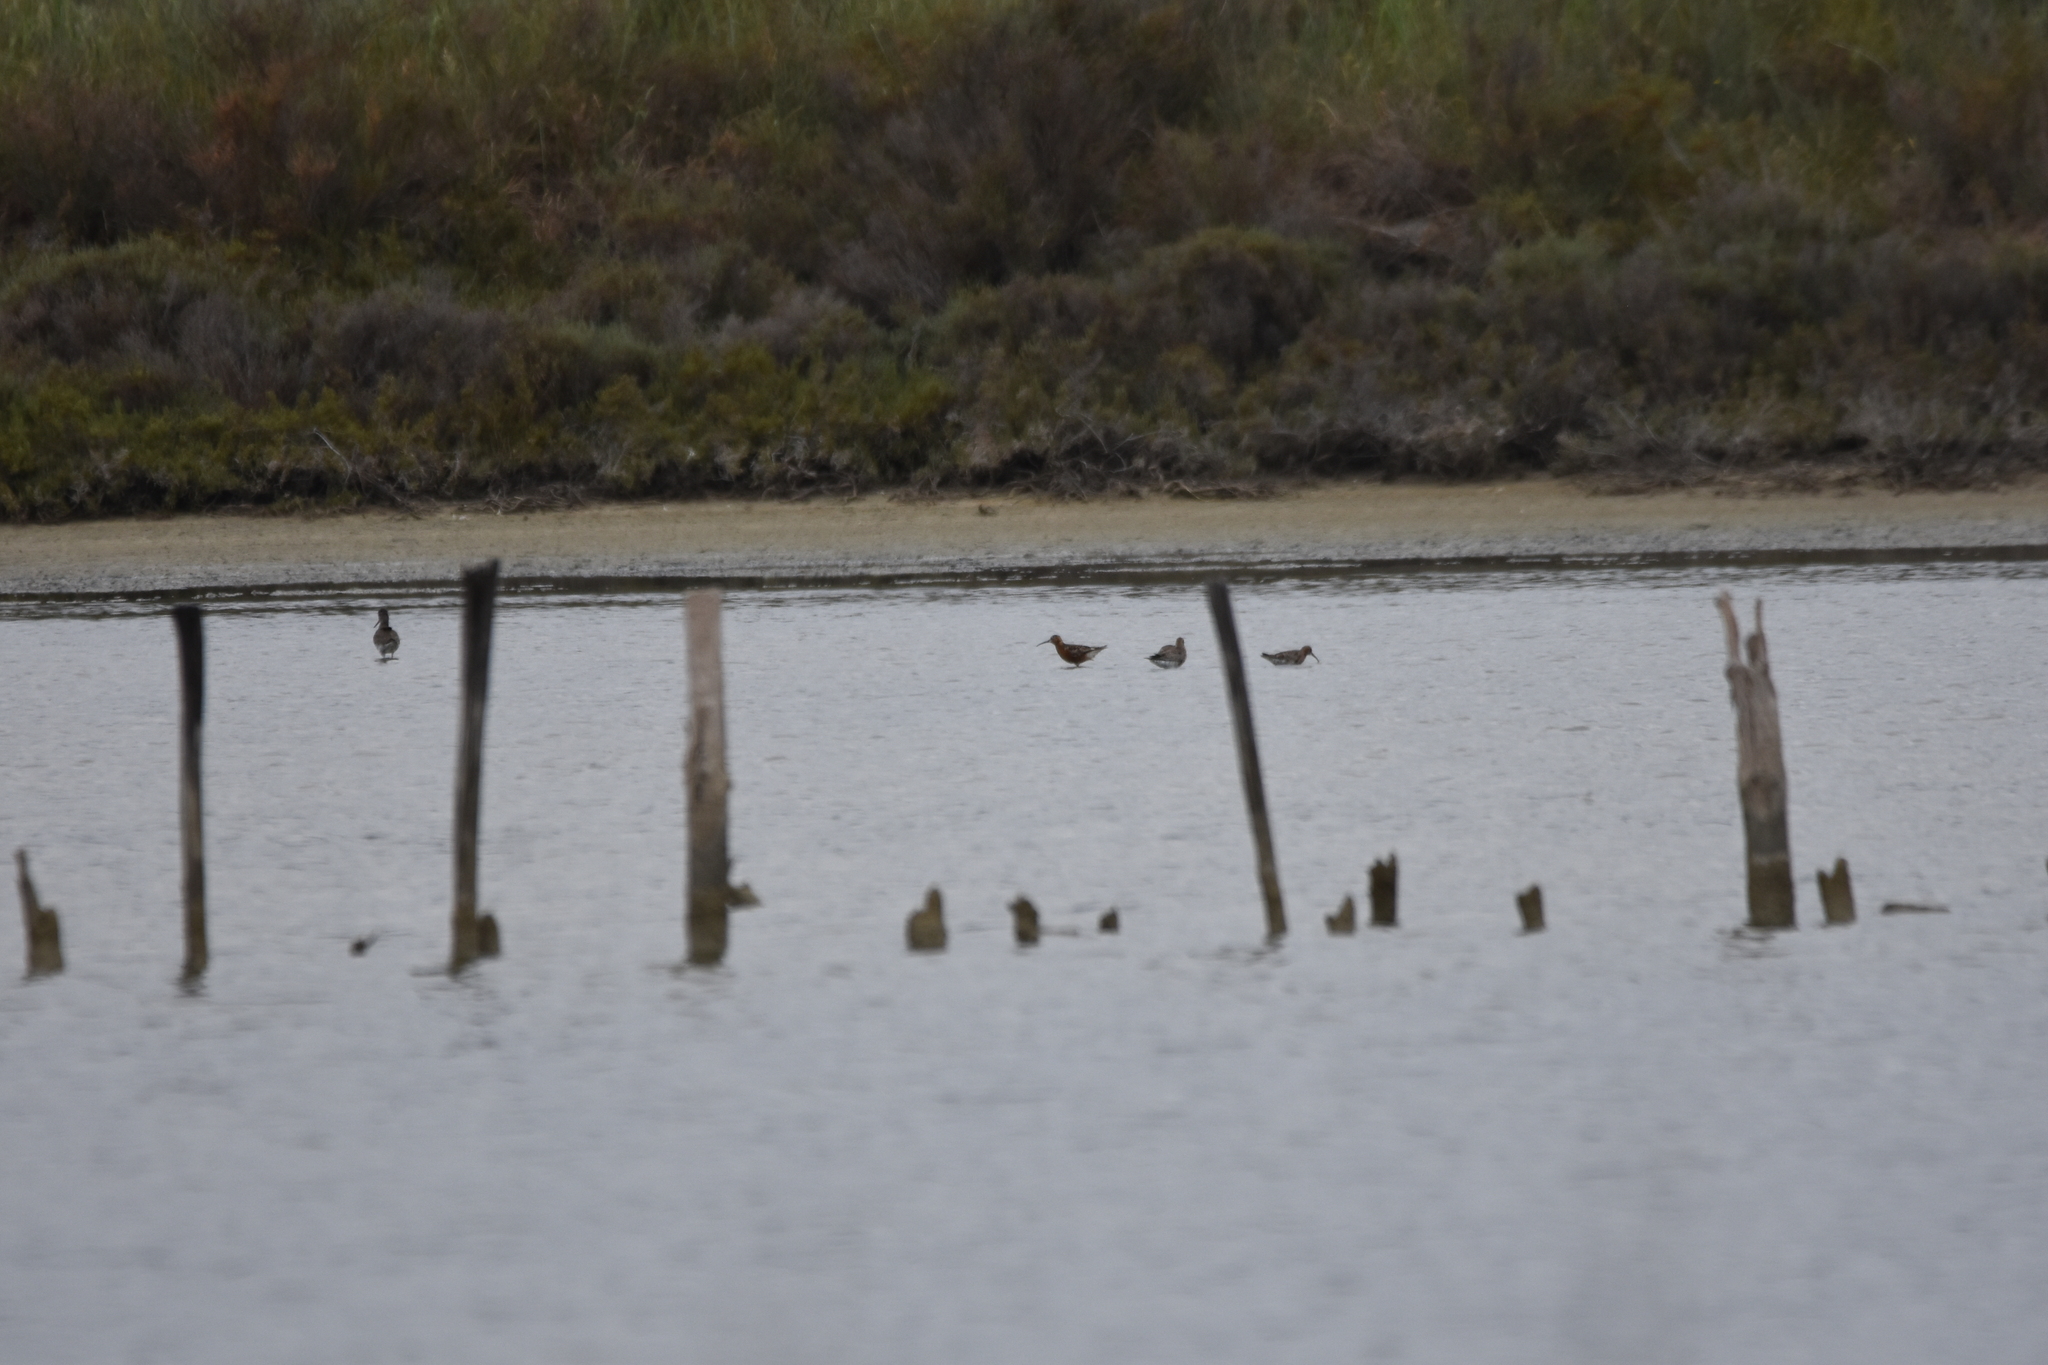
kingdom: Animalia
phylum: Chordata
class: Aves
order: Charadriiformes
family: Scolopacidae
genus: Calidris
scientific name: Calidris ferruginea
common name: Curlew sandpiper
